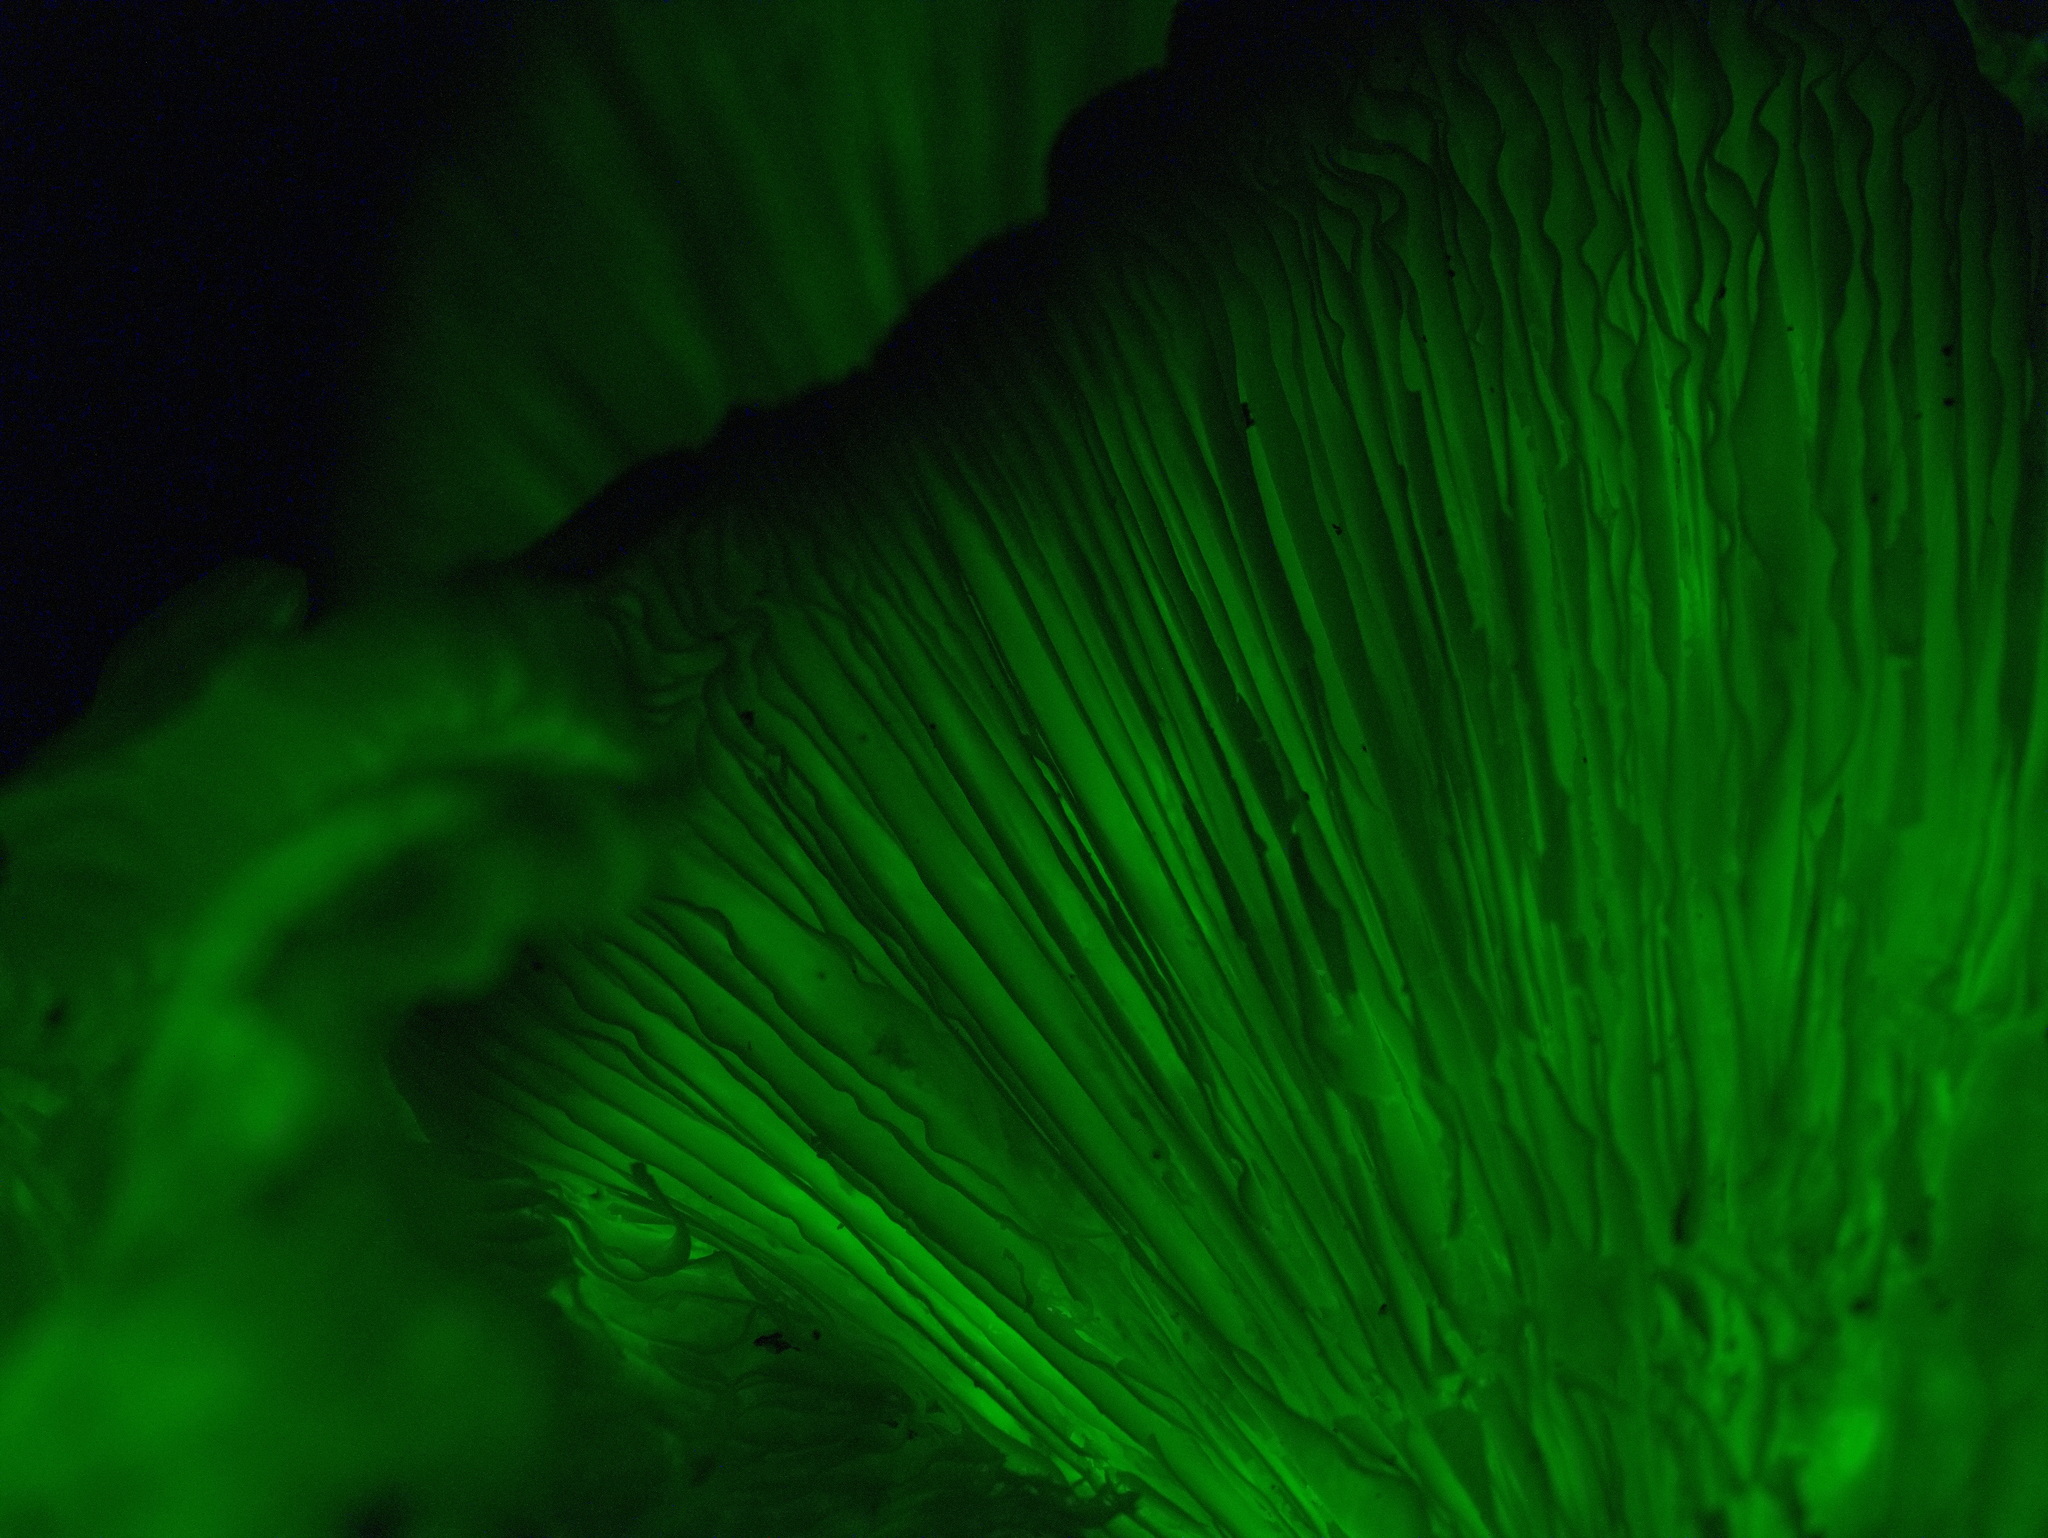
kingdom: Fungi
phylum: Basidiomycota
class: Agaricomycetes
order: Agaricales
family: Omphalotaceae
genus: Omphalotus
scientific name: Omphalotus nidiformis
